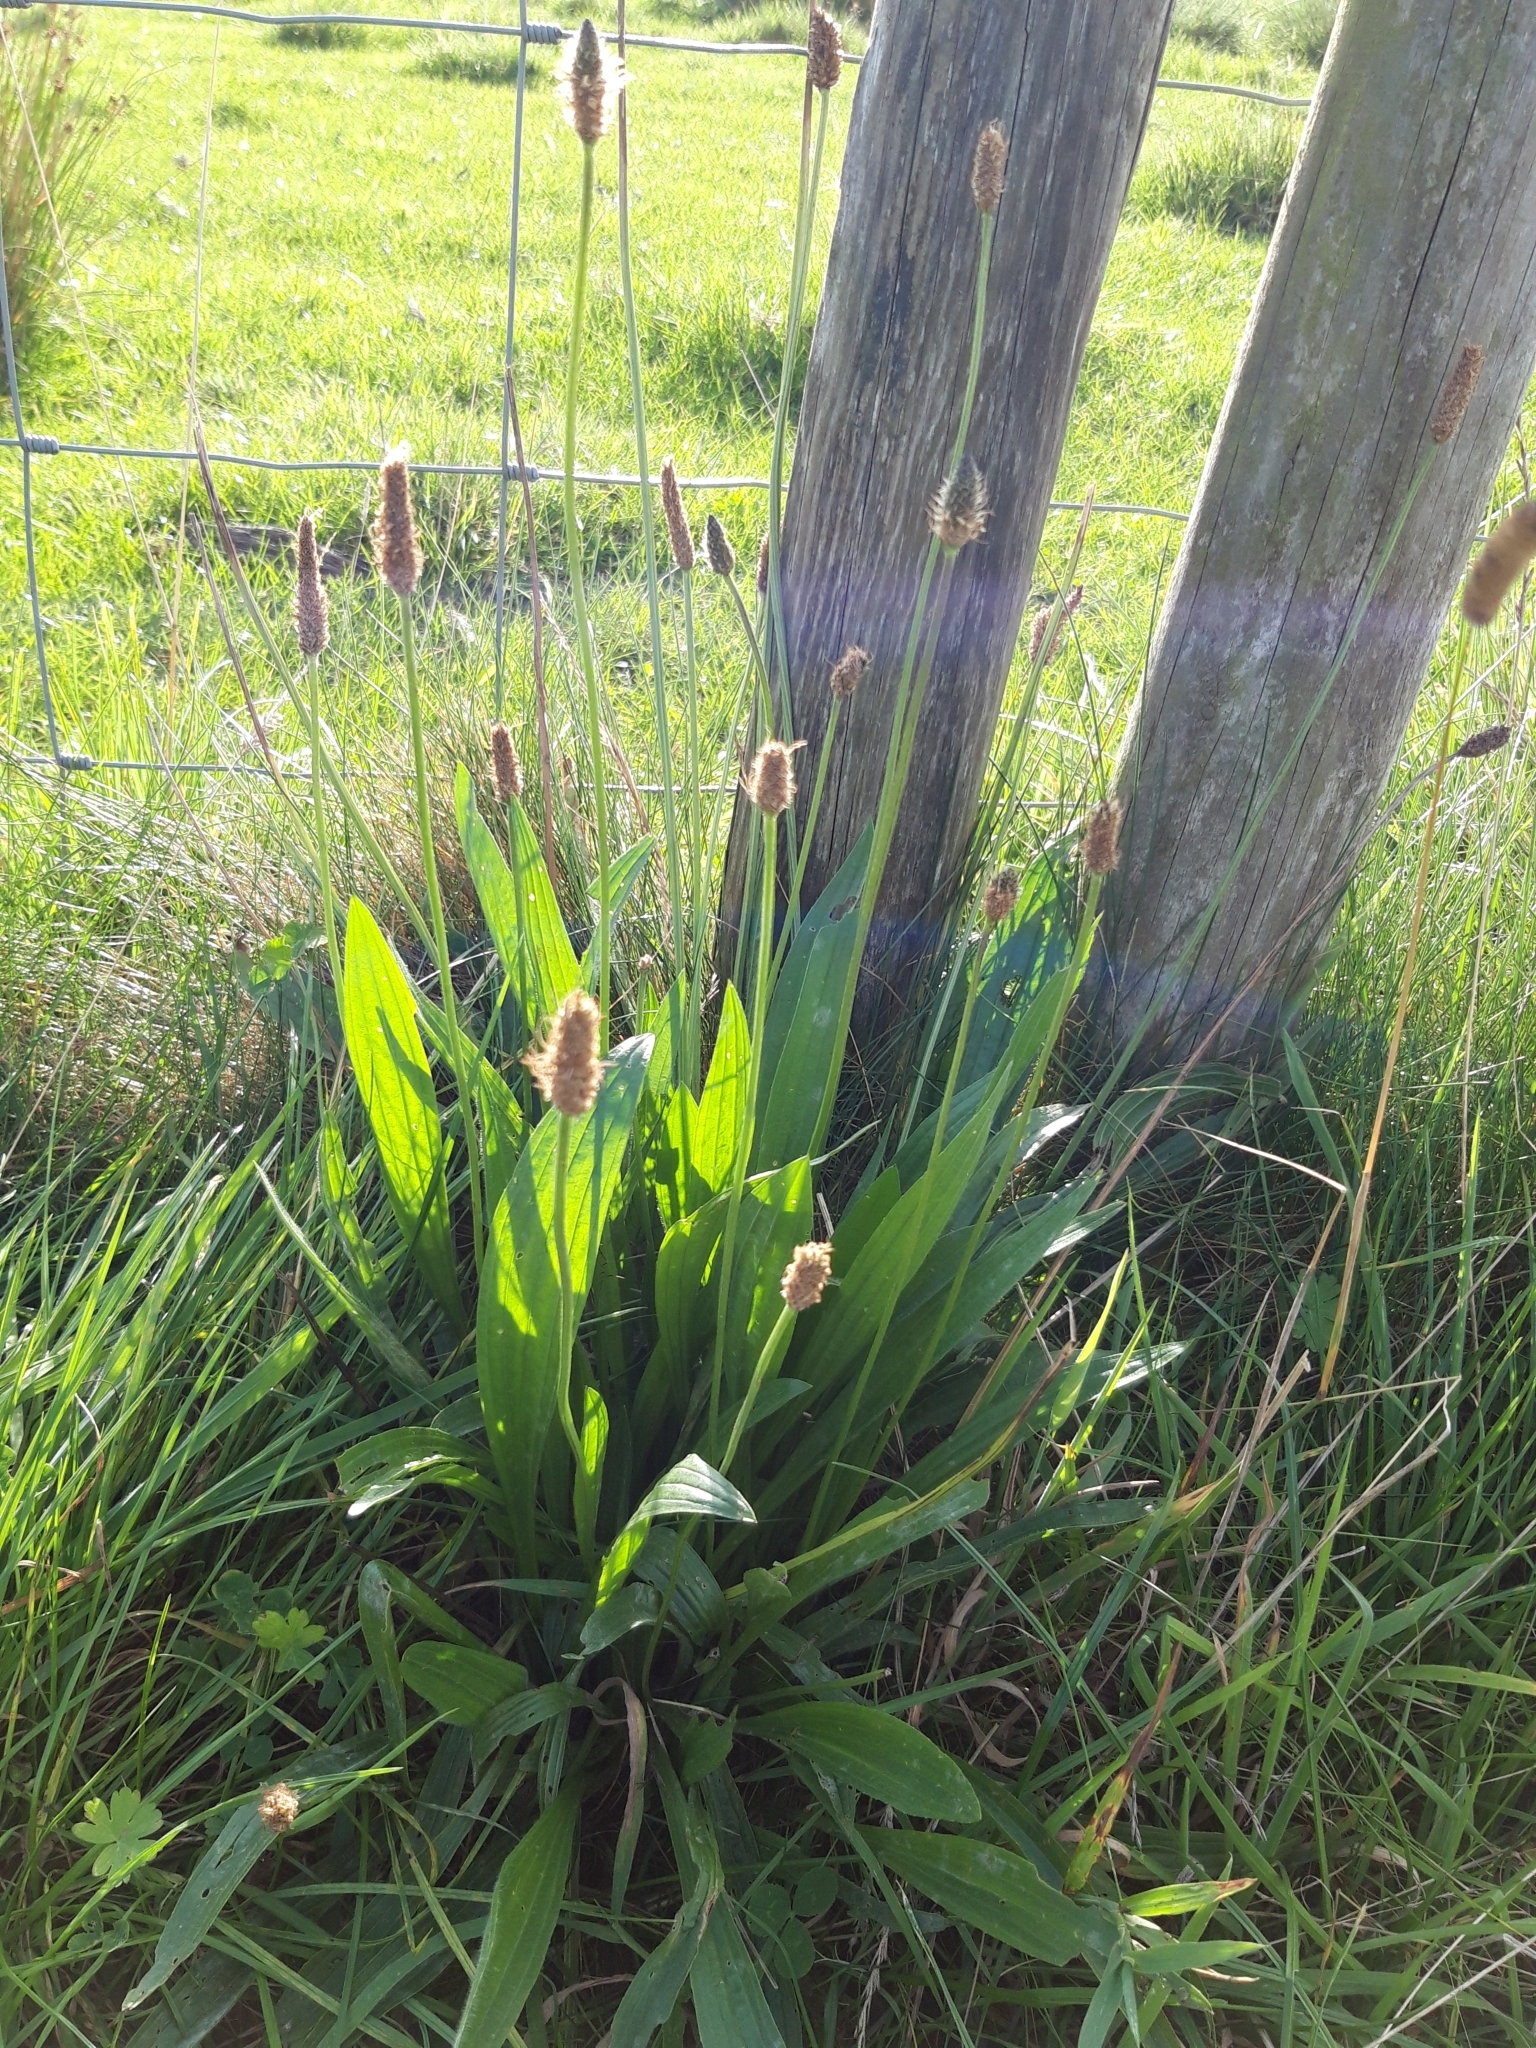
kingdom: Plantae
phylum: Tracheophyta
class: Magnoliopsida
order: Lamiales
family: Plantaginaceae
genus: Plantago
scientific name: Plantago lanceolata
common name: Ribwort plantain
